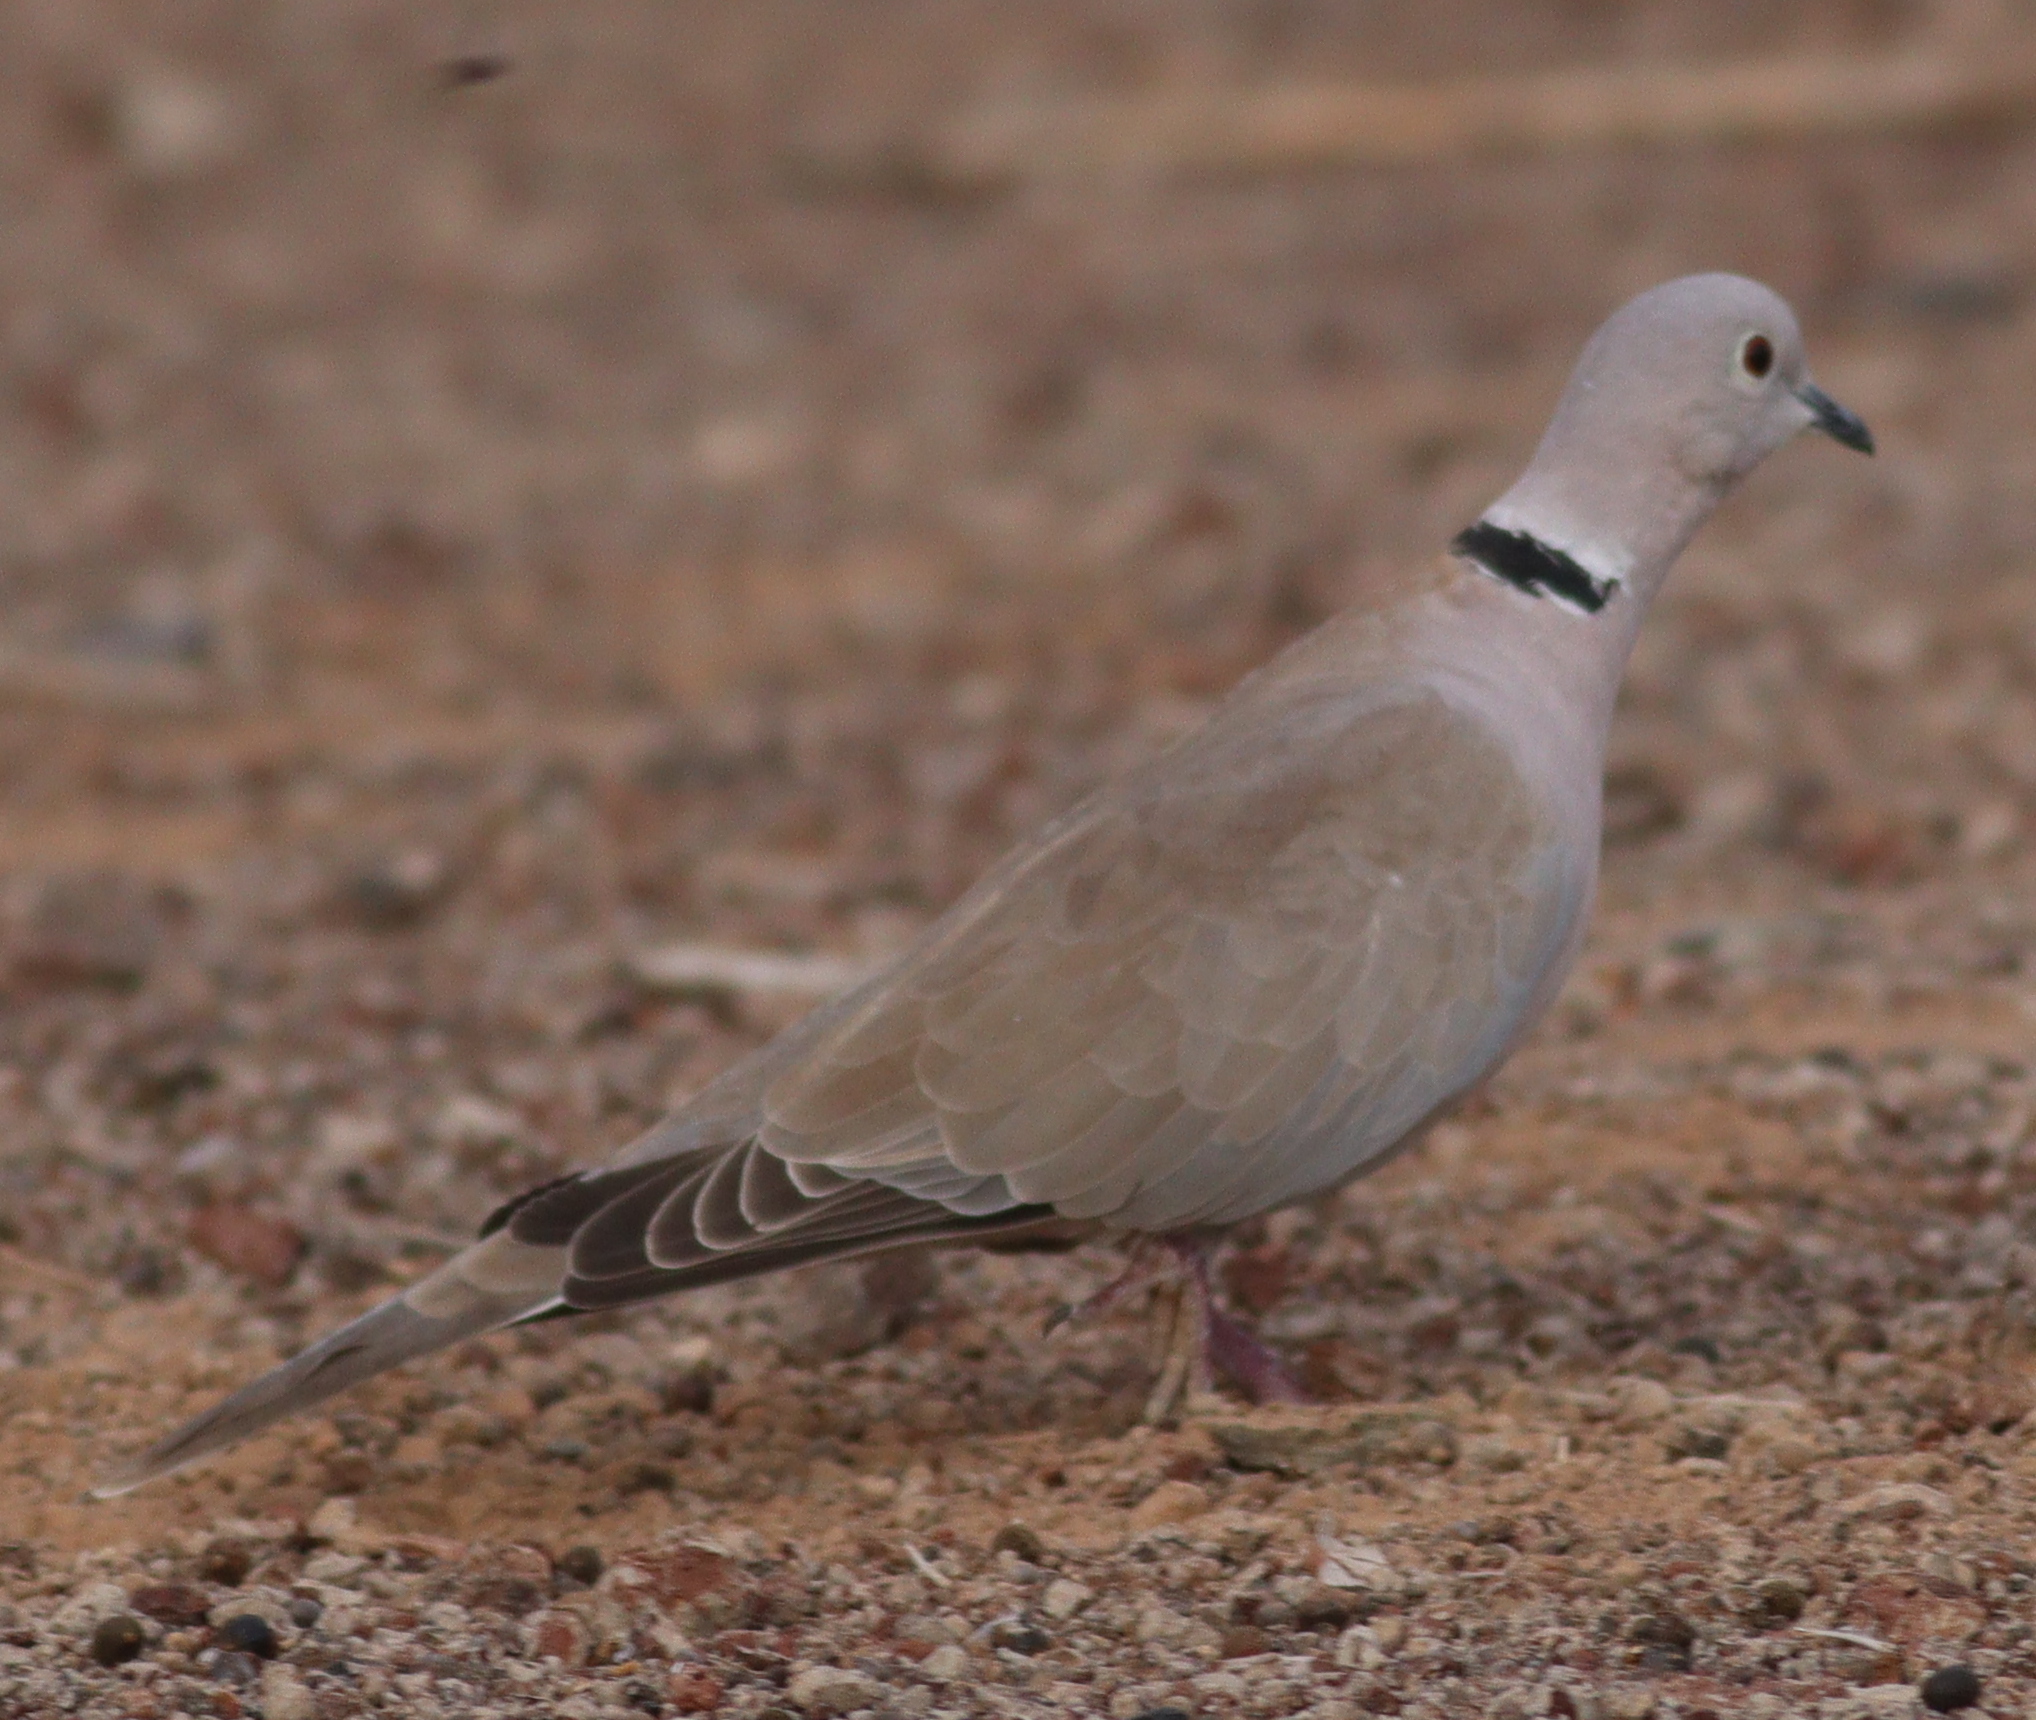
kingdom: Animalia
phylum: Chordata
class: Aves
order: Columbiformes
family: Columbidae
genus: Streptopelia
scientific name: Streptopelia decaocto
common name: Eurasian collared dove
